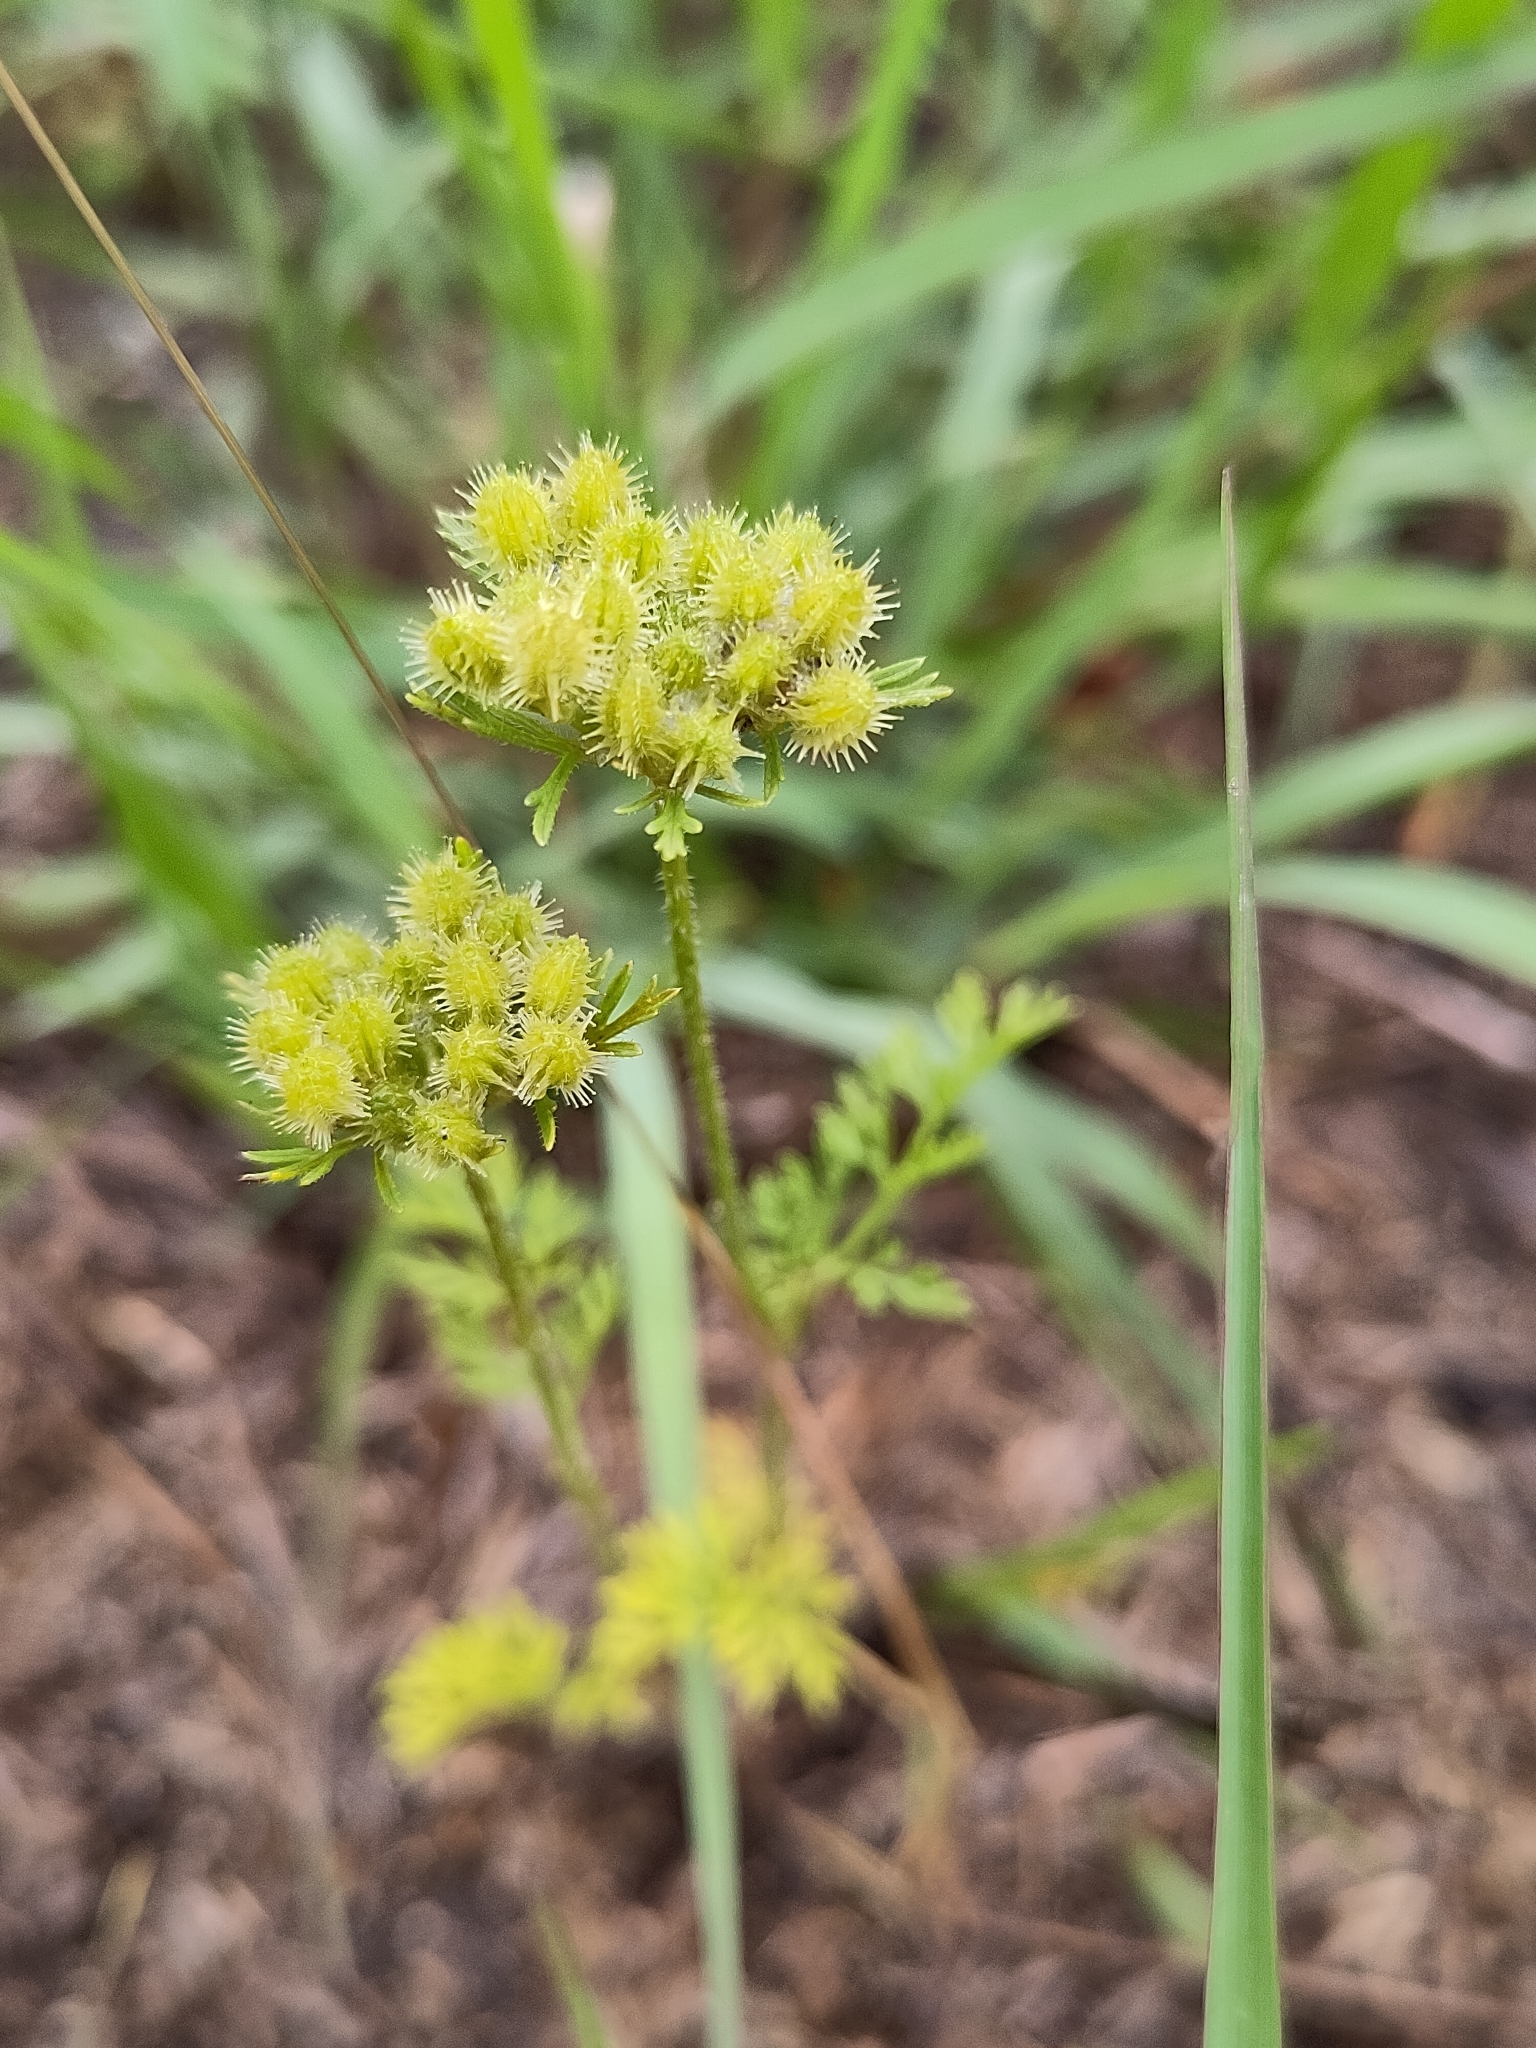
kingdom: Plantae
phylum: Tracheophyta
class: Magnoliopsida
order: Apiales
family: Apiaceae
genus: Daucus
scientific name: Daucus pusillus
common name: Southwest wild carrot
